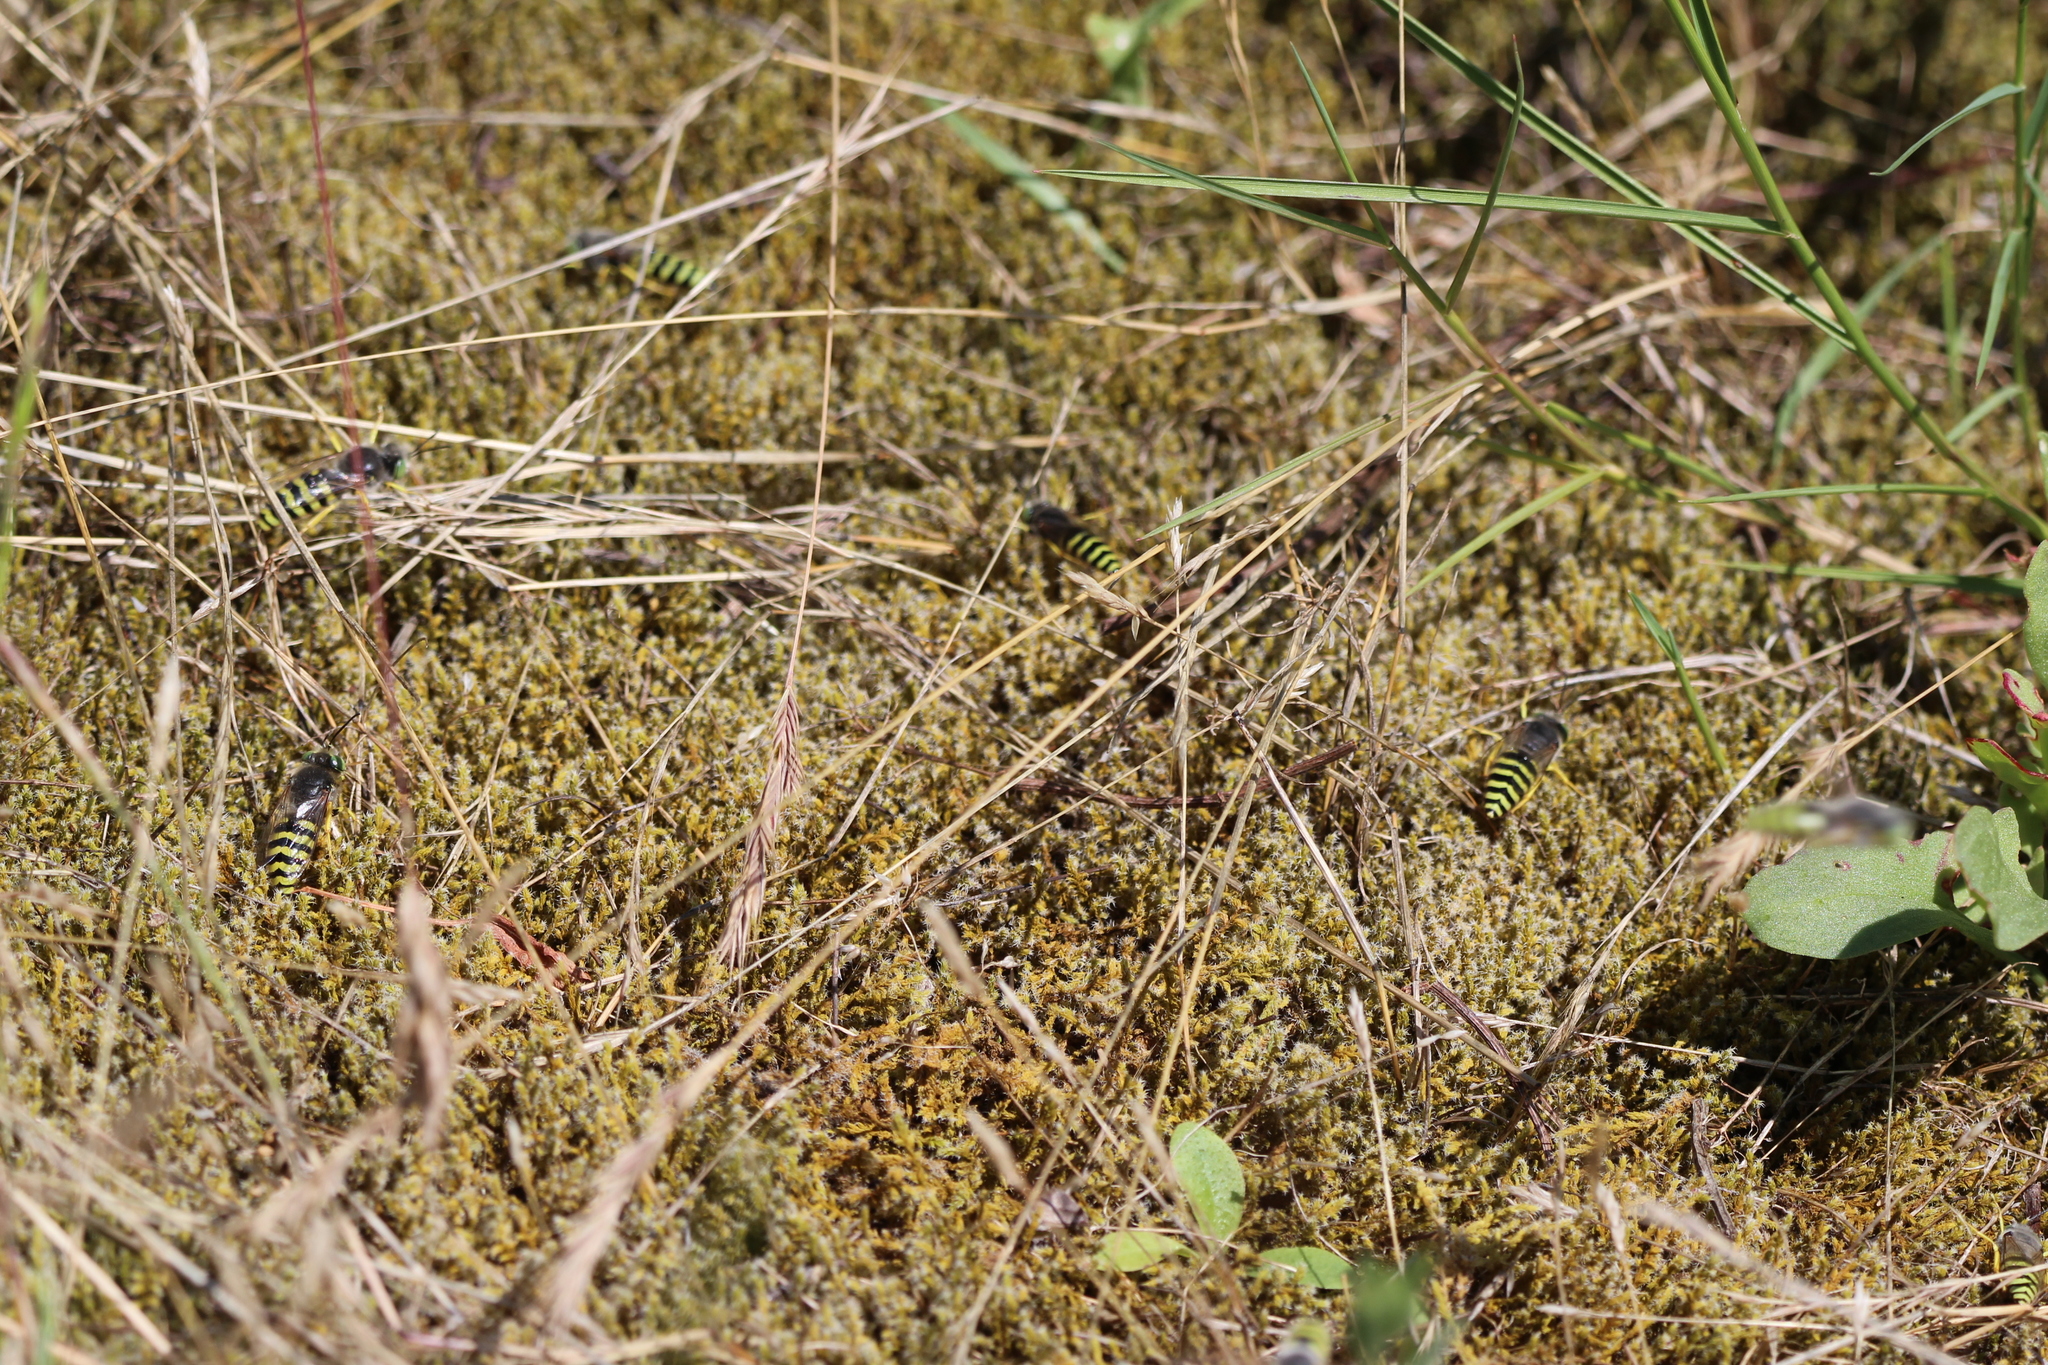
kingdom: Animalia
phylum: Arthropoda
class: Insecta
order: Hymenoptera
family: Crabronidae
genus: Bembix
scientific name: Bembix americana
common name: American sand wasp
